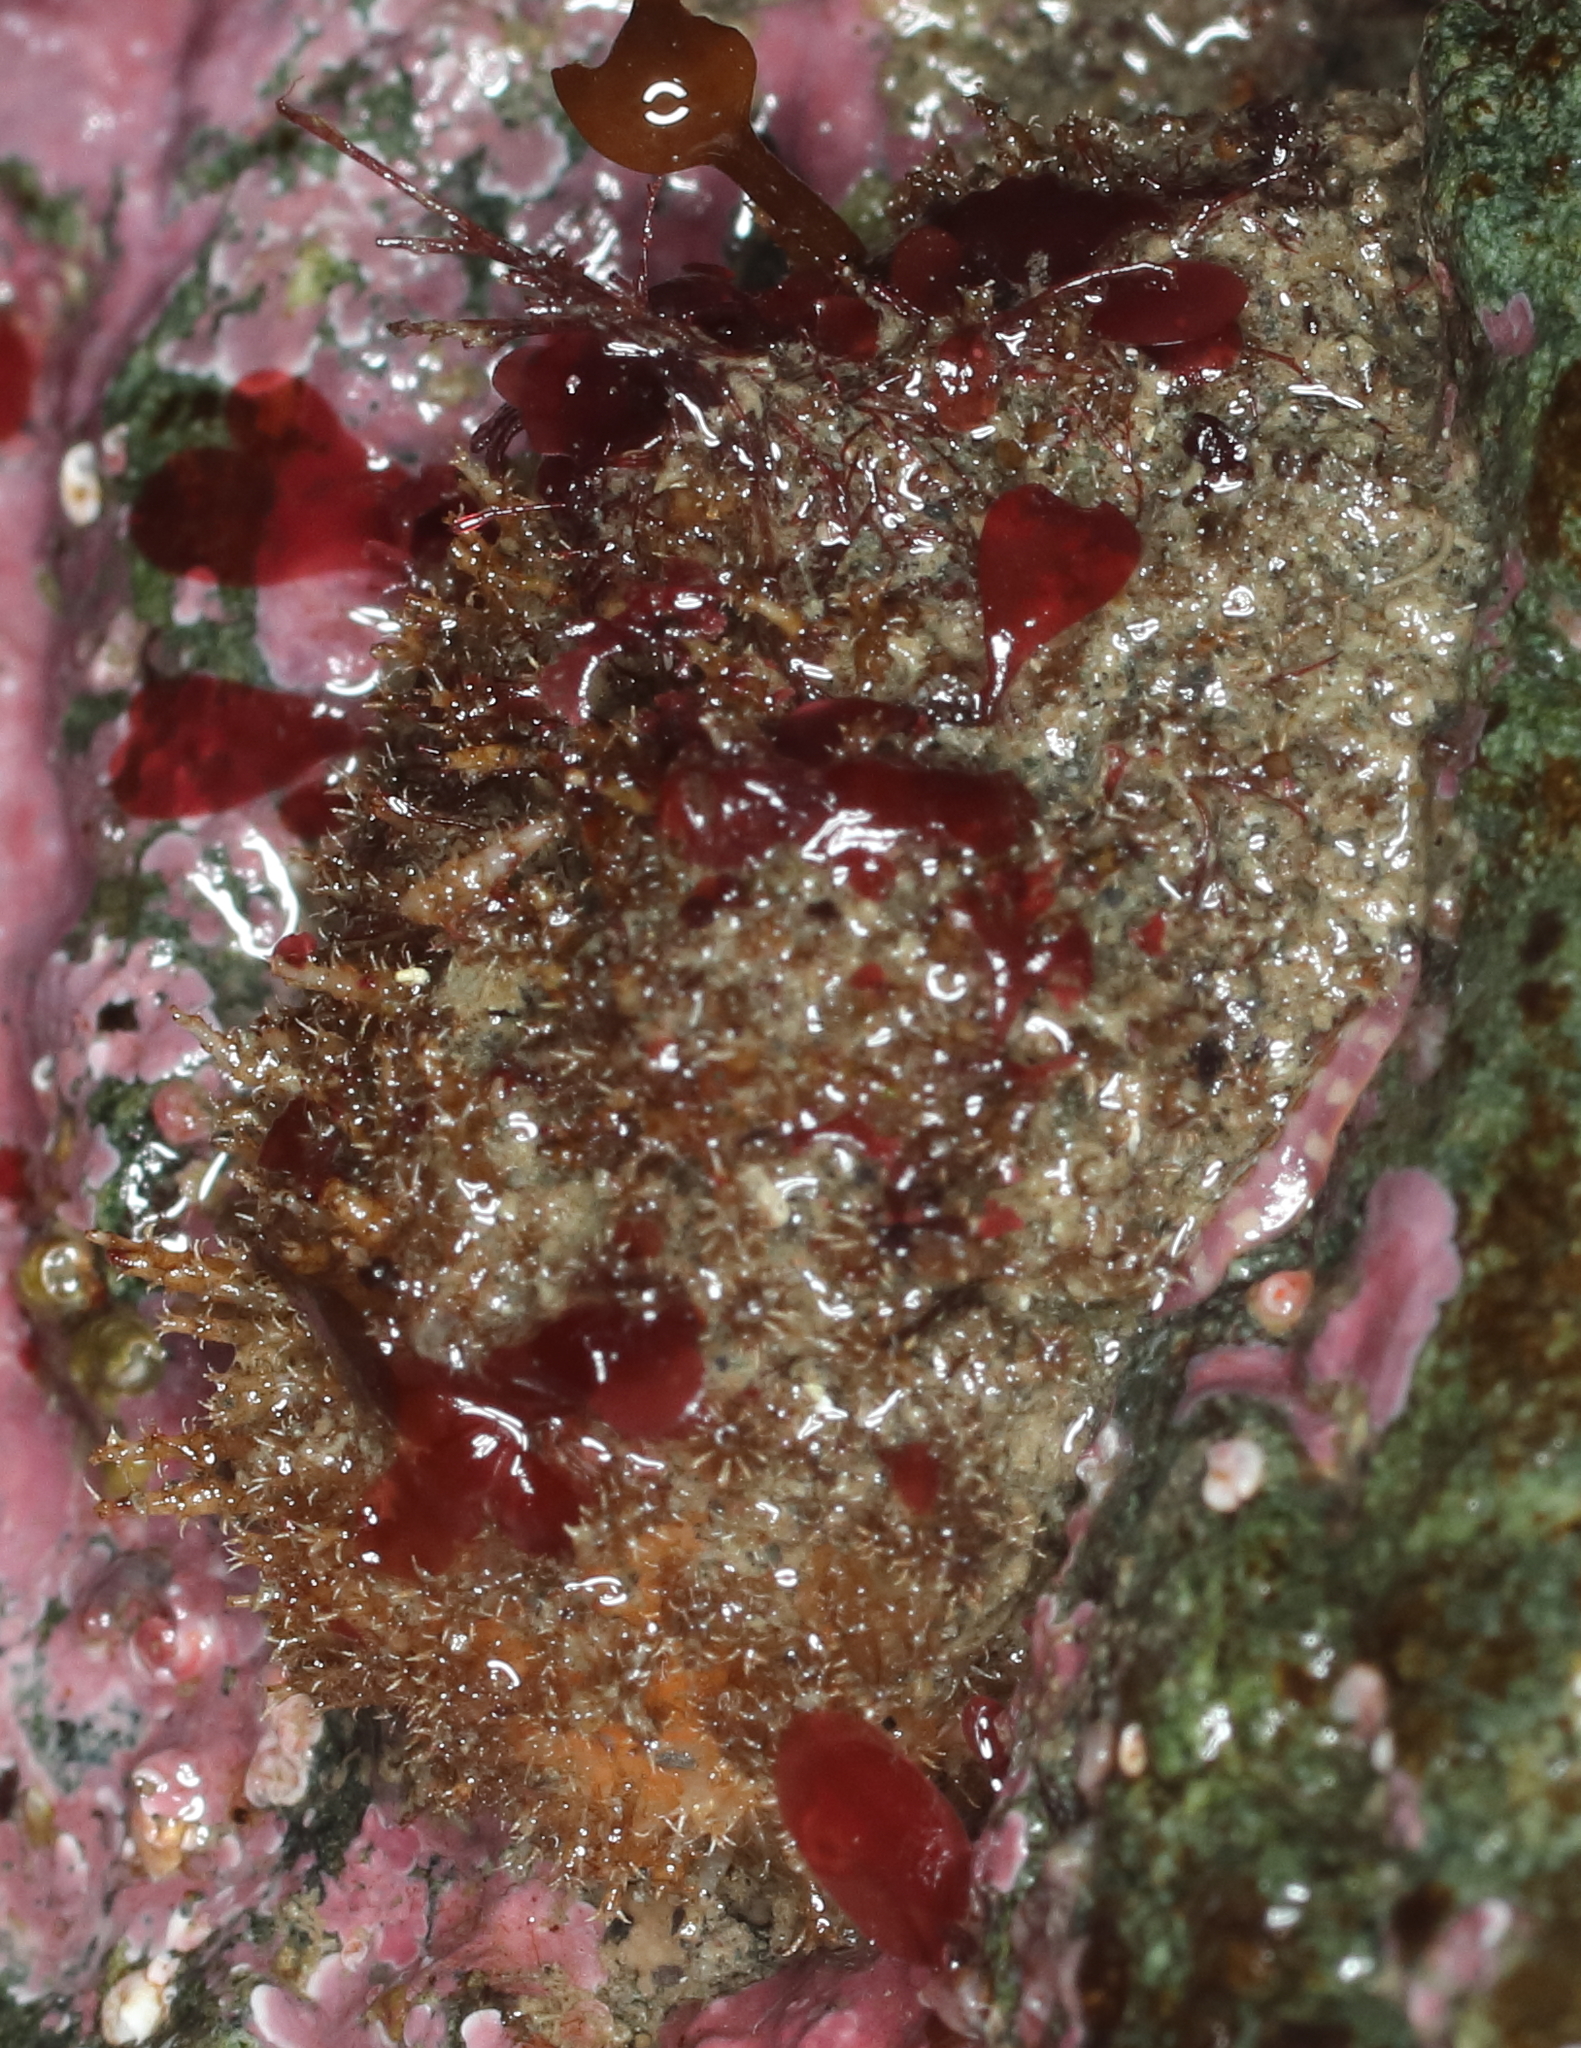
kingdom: Animalia
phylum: Chordata
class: Ascidiacea
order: Stolidobranchia
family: Pyuridae
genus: Halocynthia
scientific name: Halocynthia igaboja
